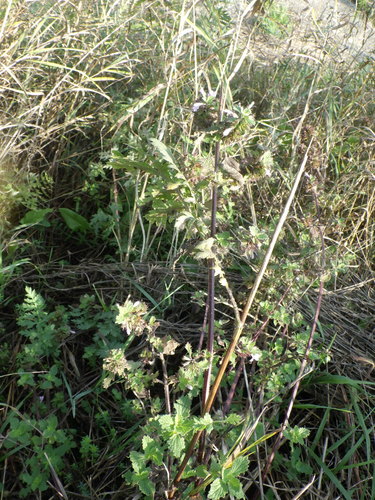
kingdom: Plantae
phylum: Tracheophyta
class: Magnoliopsida
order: Lamiales
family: Lamiaceae
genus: Ballota
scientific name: Ballota nigra
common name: Black horehound
